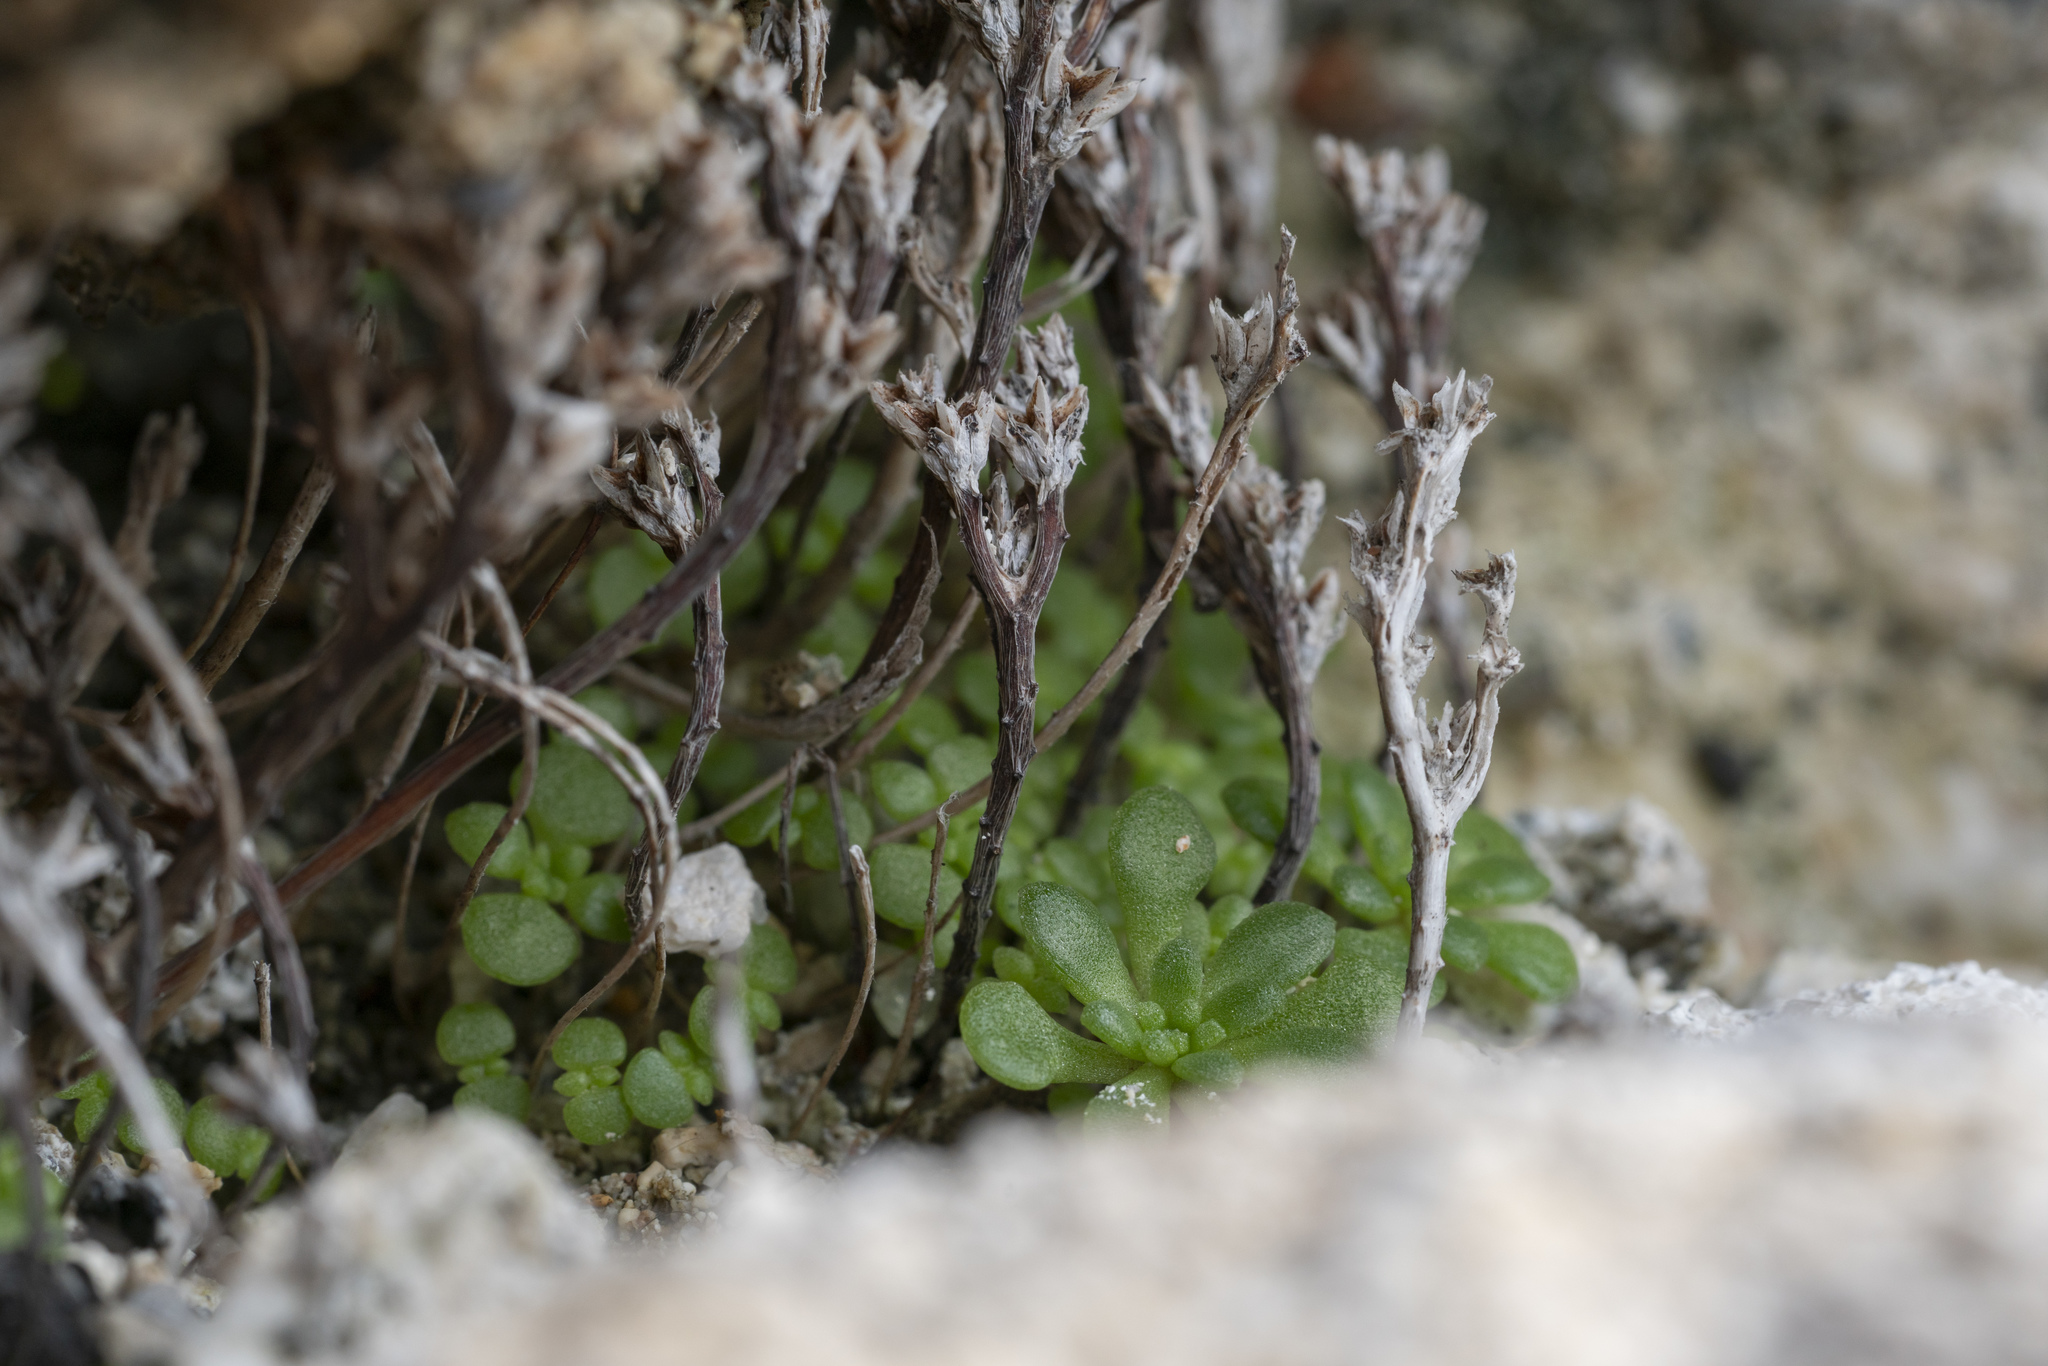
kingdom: Plantae
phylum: Tracheophyta
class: Magnoliopsida
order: Saxifragales
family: Crassulaceae
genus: Sedum
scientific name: Sedum litoreum
